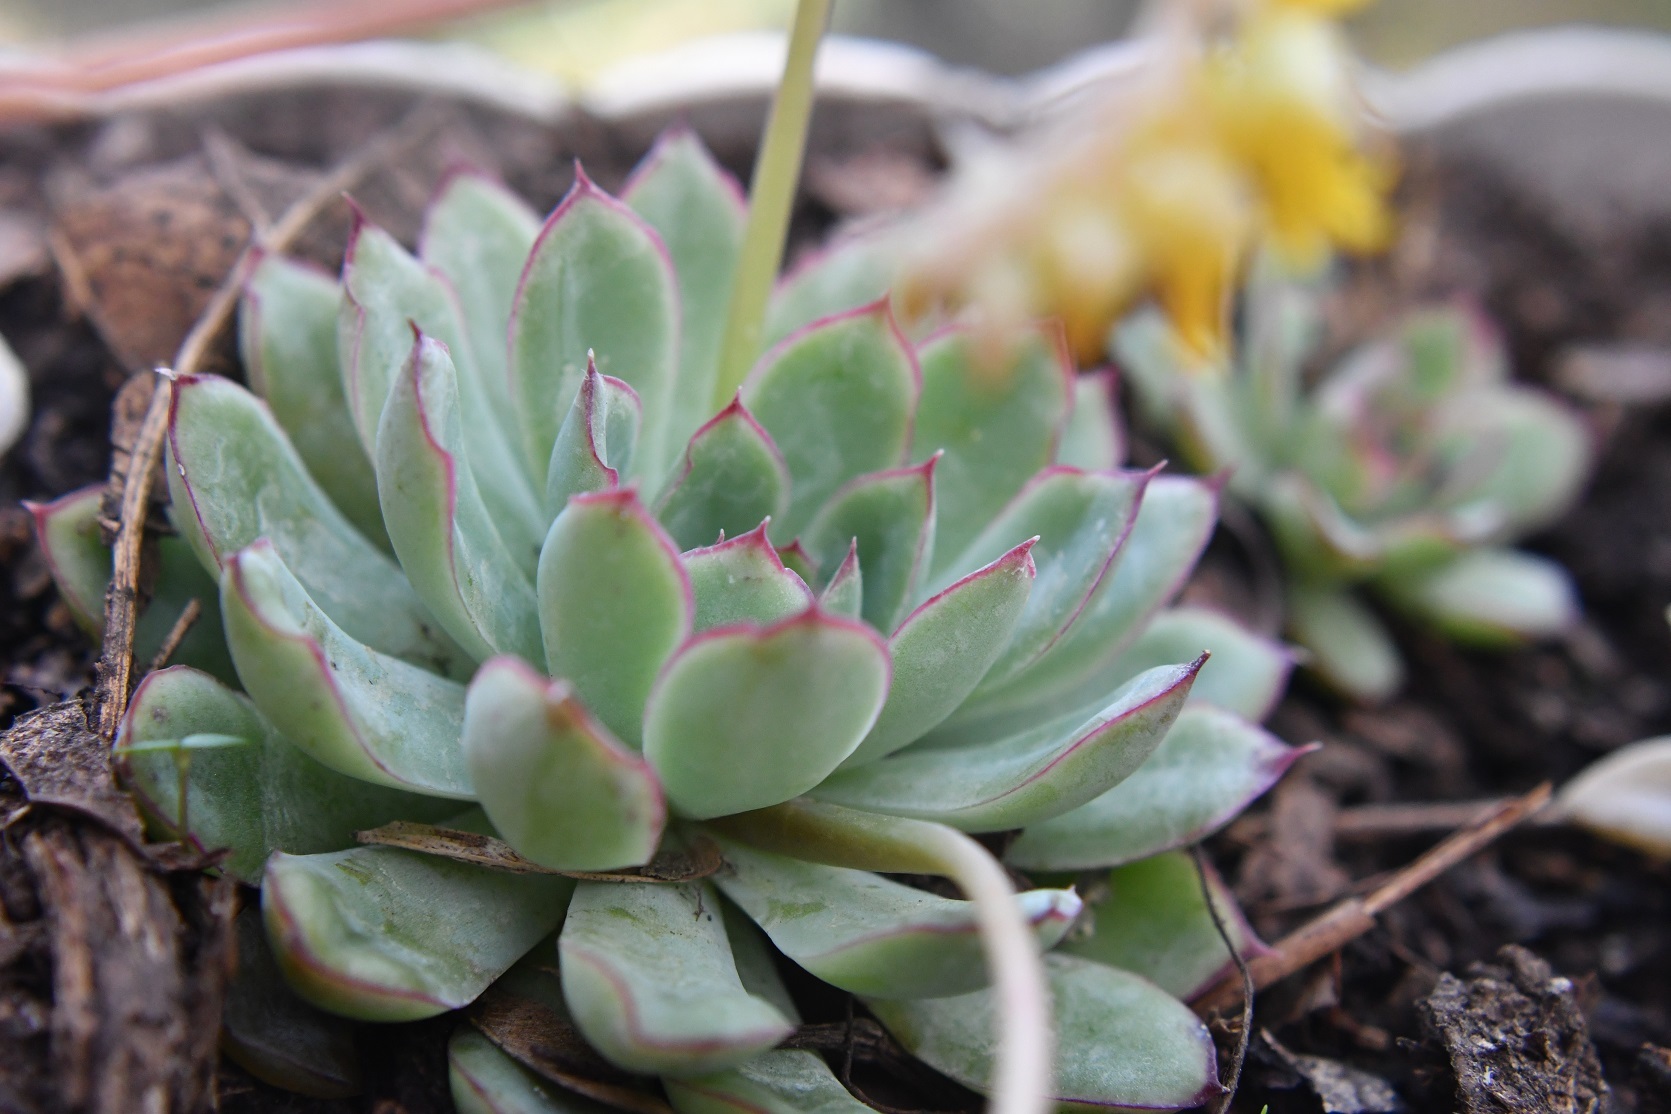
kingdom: Plantae
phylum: Tracheophyta
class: Magnoliopsida
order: Saxifragales
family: Crassulaceae
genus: Echeveria
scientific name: Echeveria pulidonis
